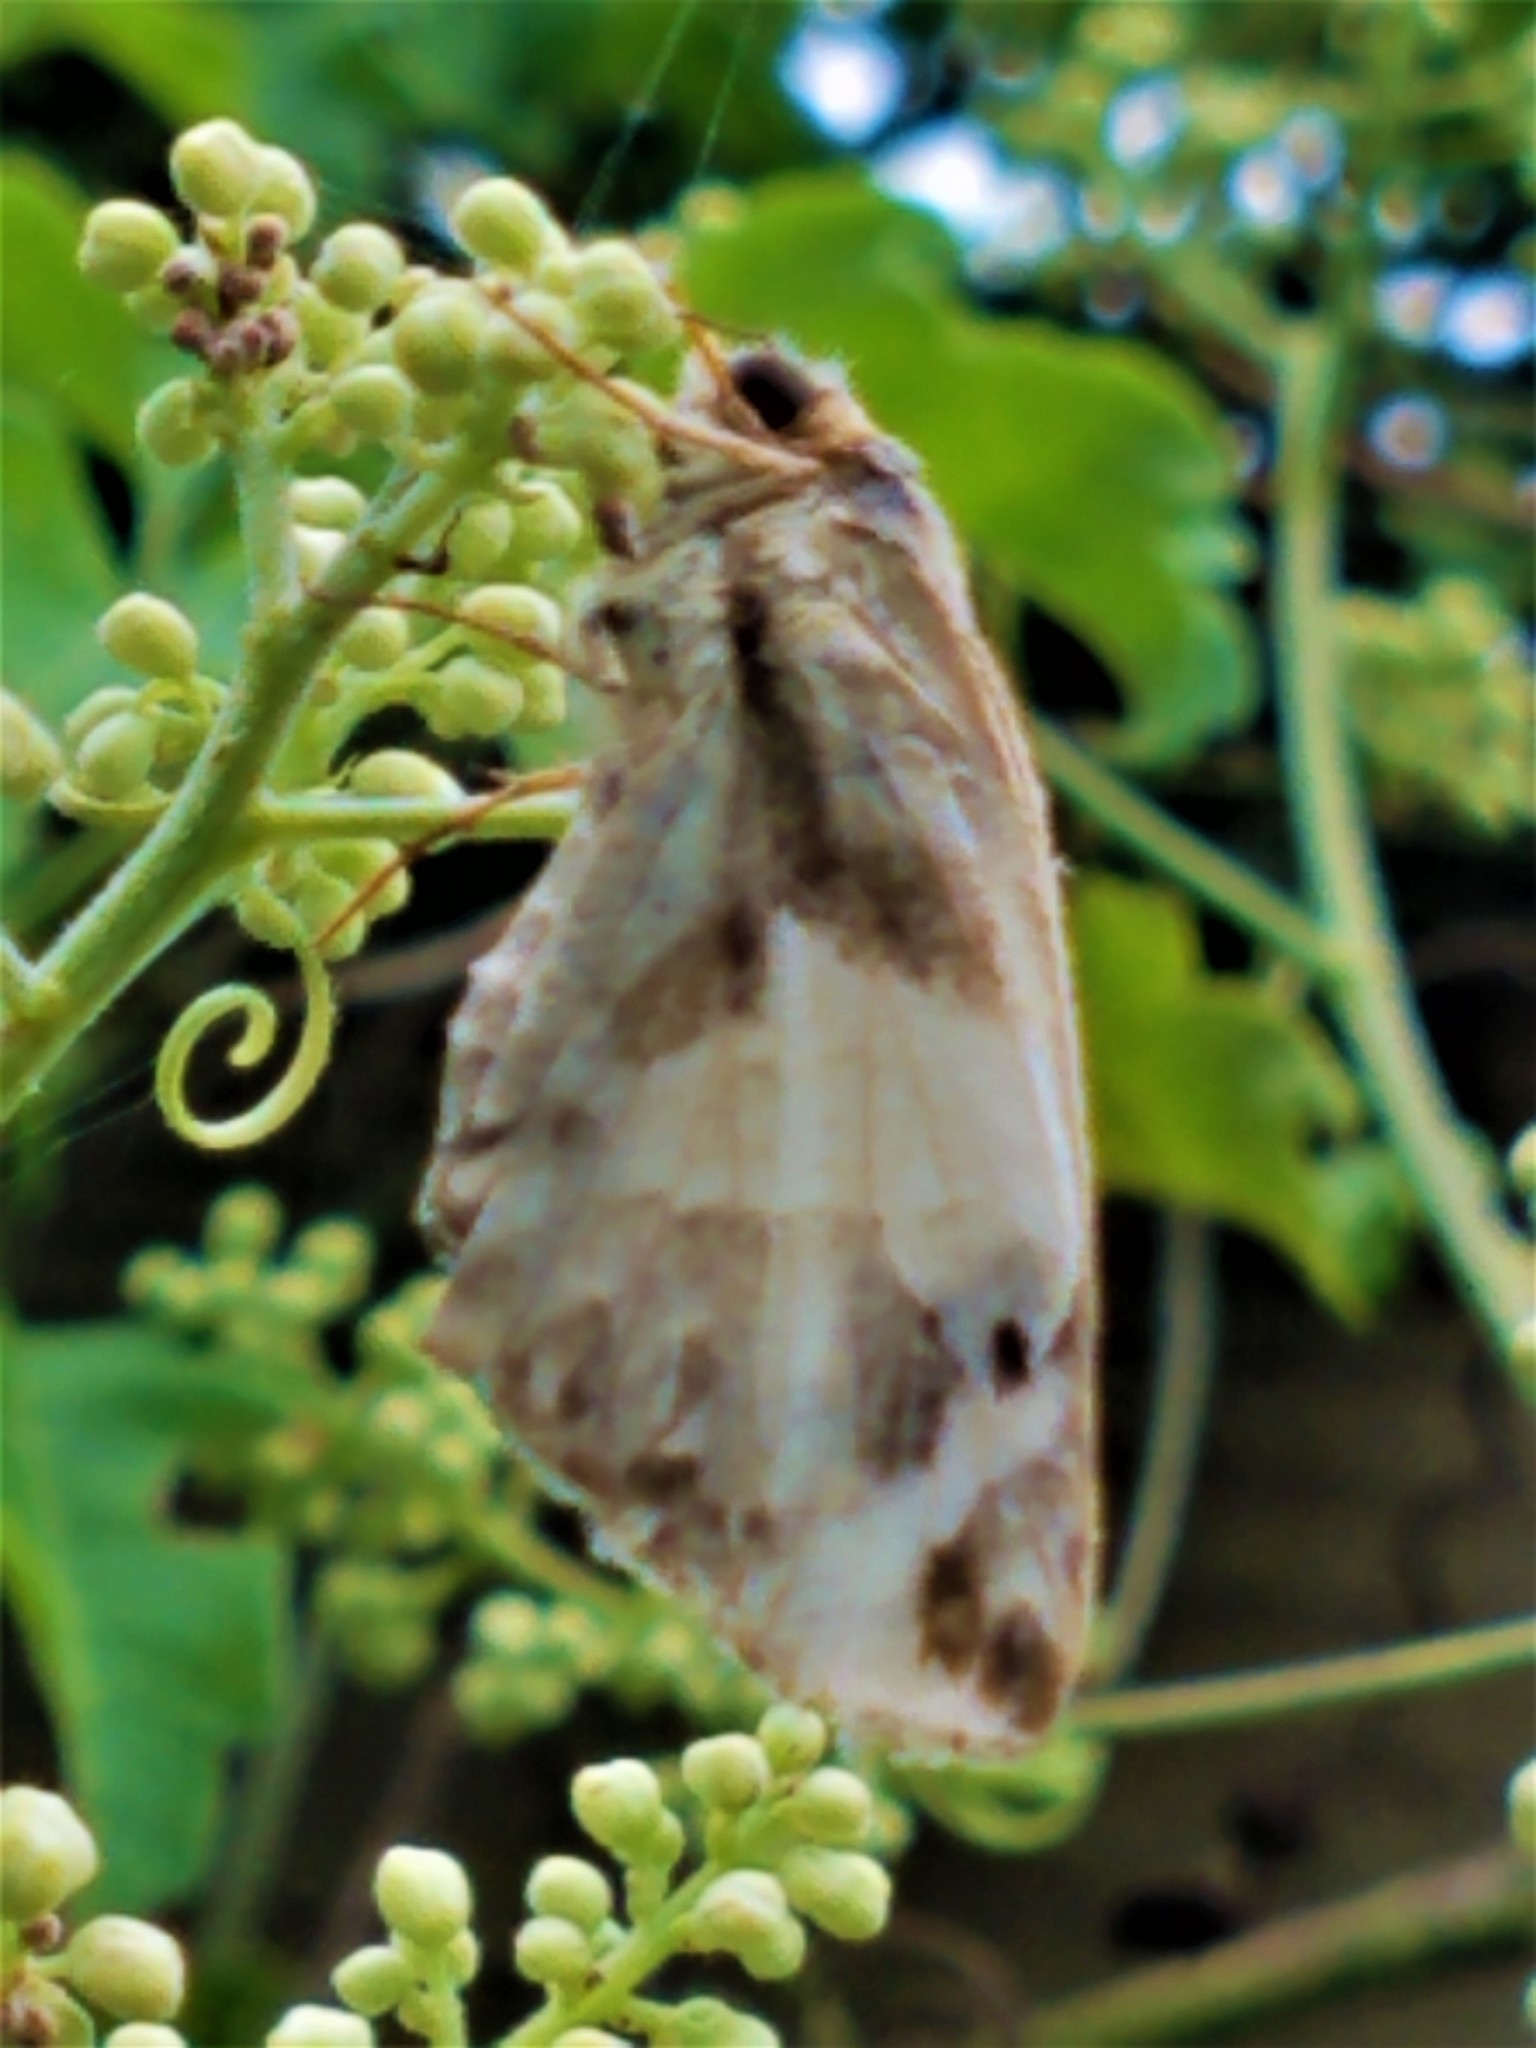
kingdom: Animalia
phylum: Arthropoda
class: Insecta
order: Lepidoptera
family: Hesperiidae
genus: Heliopetes
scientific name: Heliopetes laviana
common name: Laviana white-skipper
